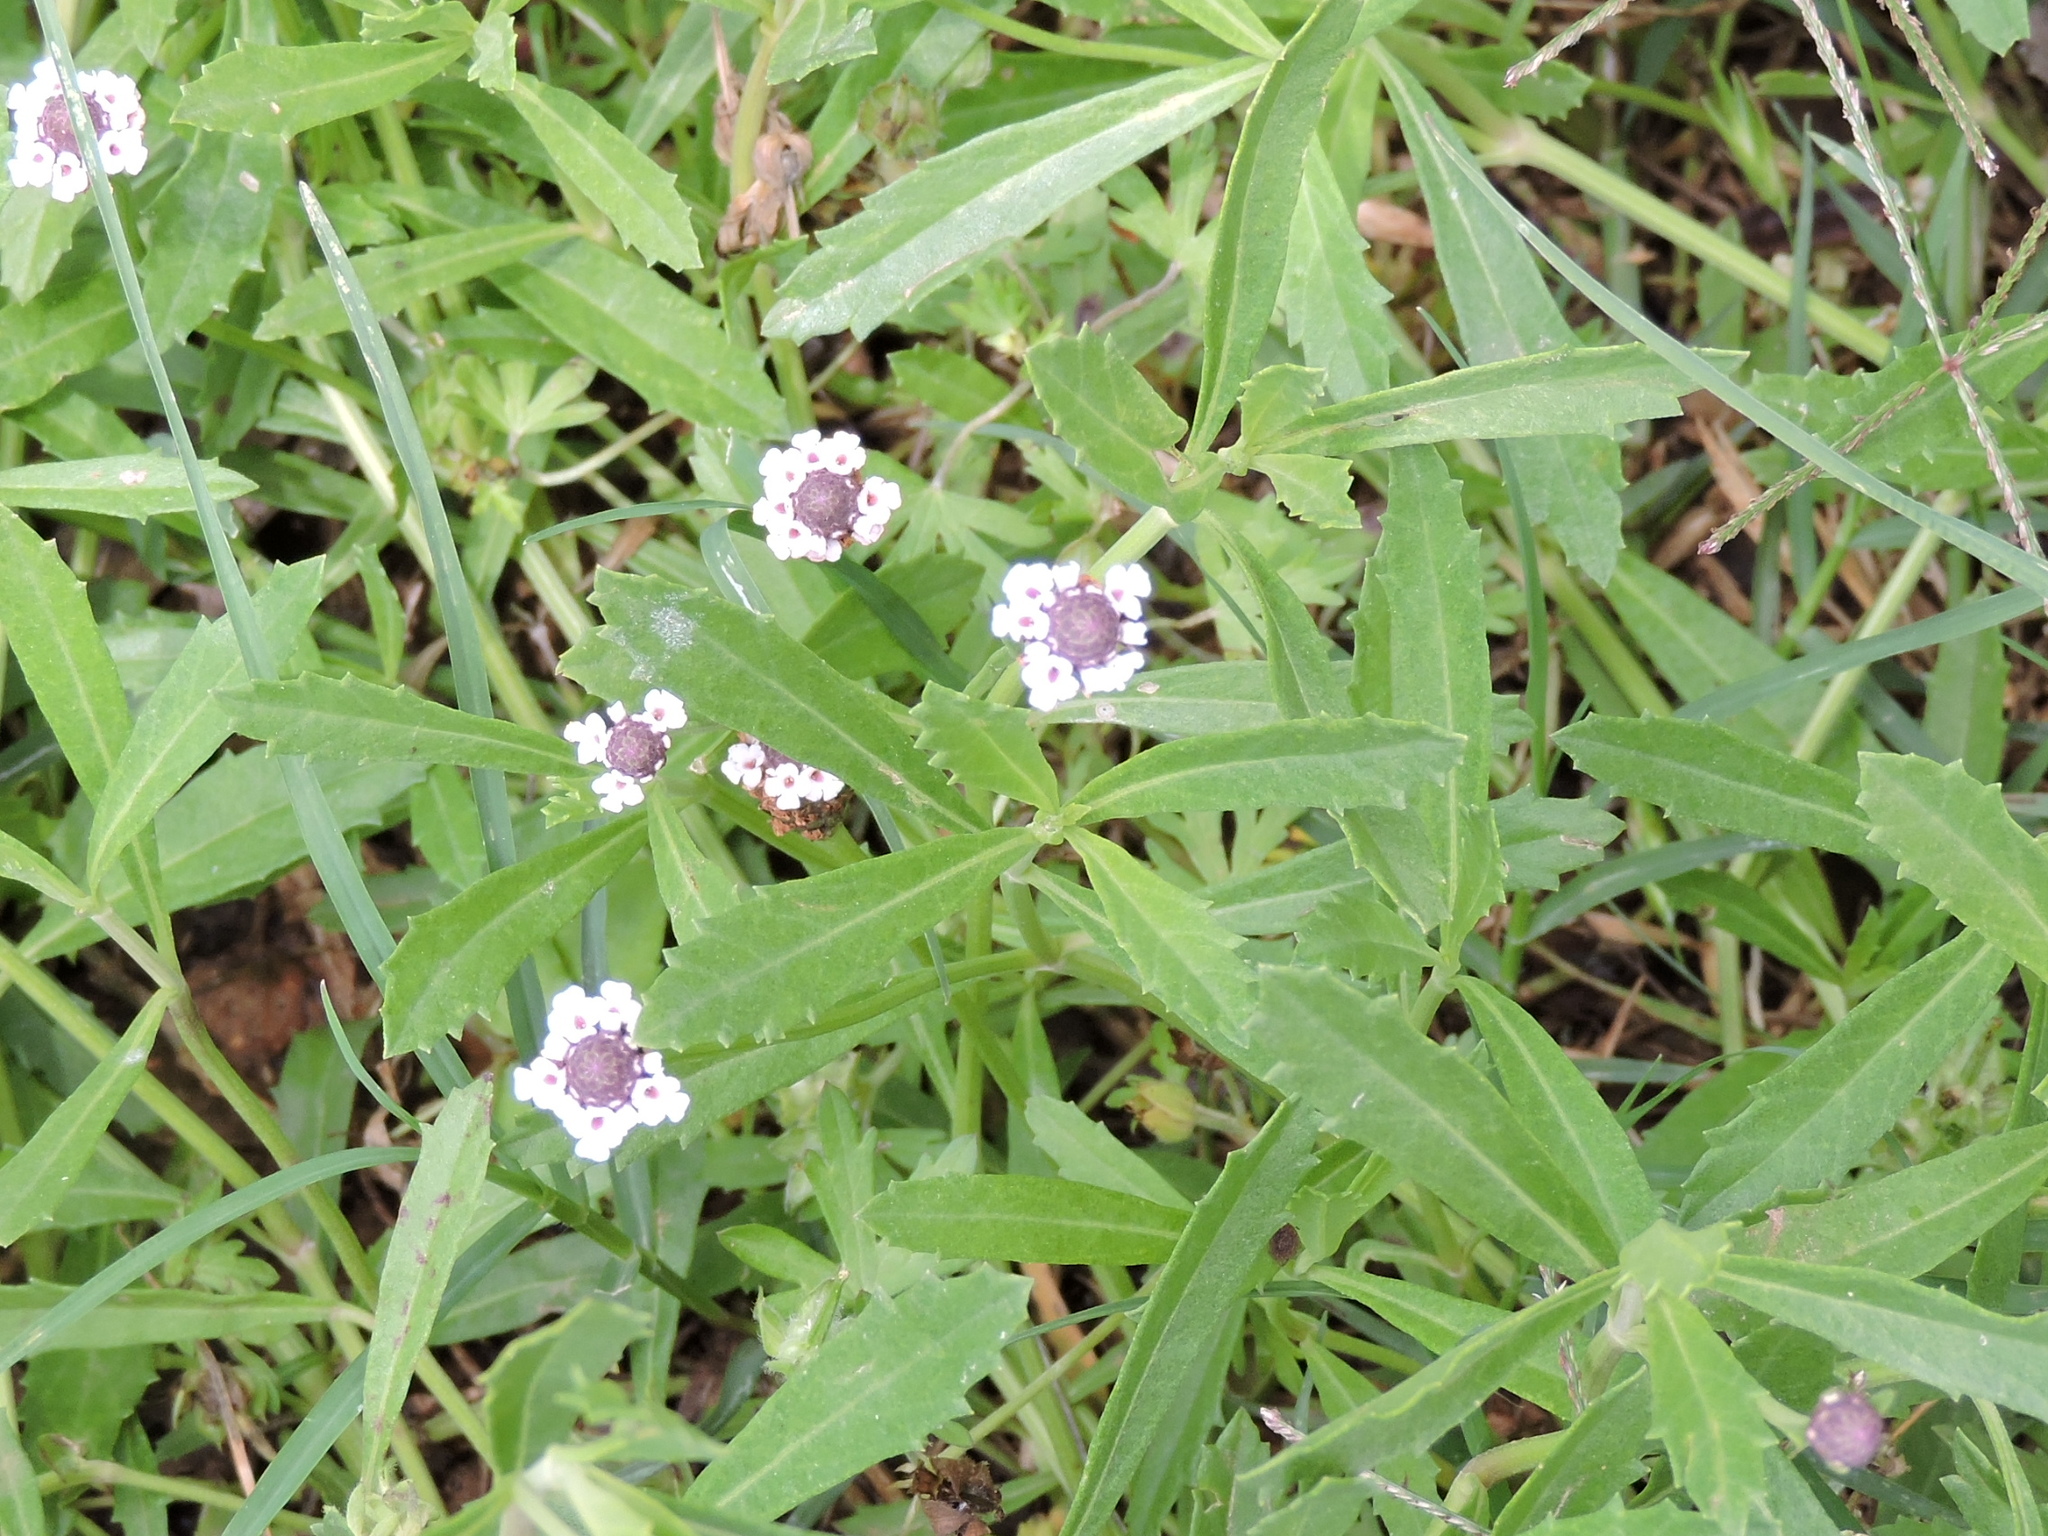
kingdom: Plantae
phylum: Tracheophyta
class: Magnoliopsida
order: Lamiales
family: Verbenaceae
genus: Phyla
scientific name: Phyla nodiflora
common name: Frogfruit
